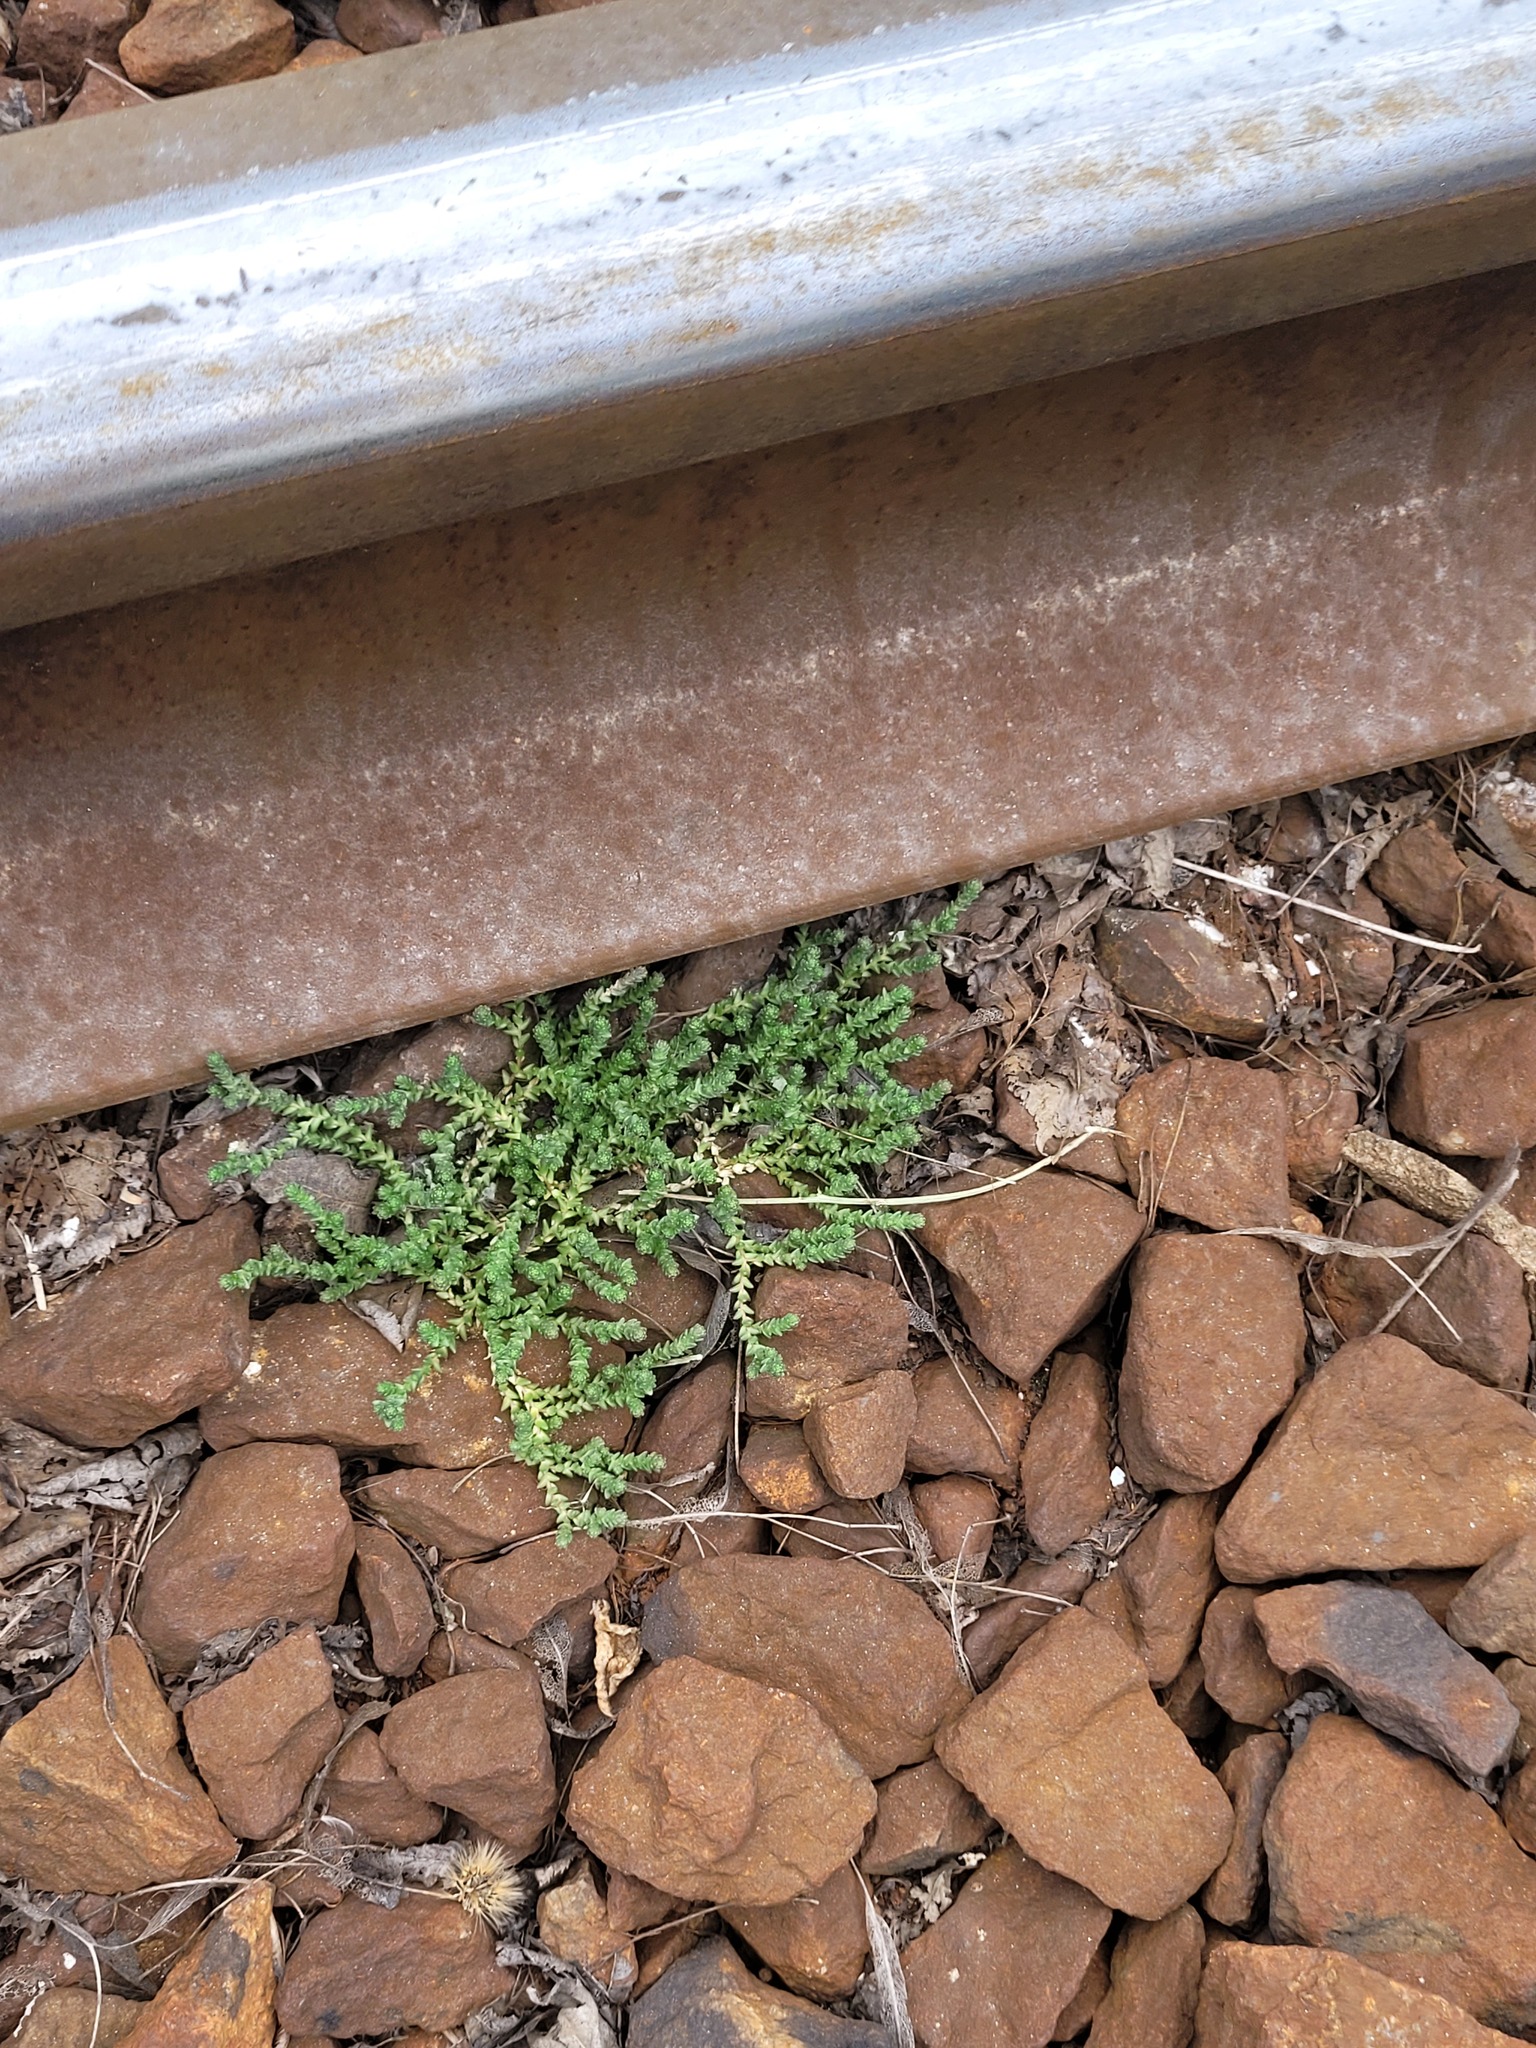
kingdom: Plantae
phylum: Tracheophyta
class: Magnoliopsida
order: Saxifragales
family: Crassulaceae
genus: Sedum
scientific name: Sedum acre
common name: Biting stonecrop
